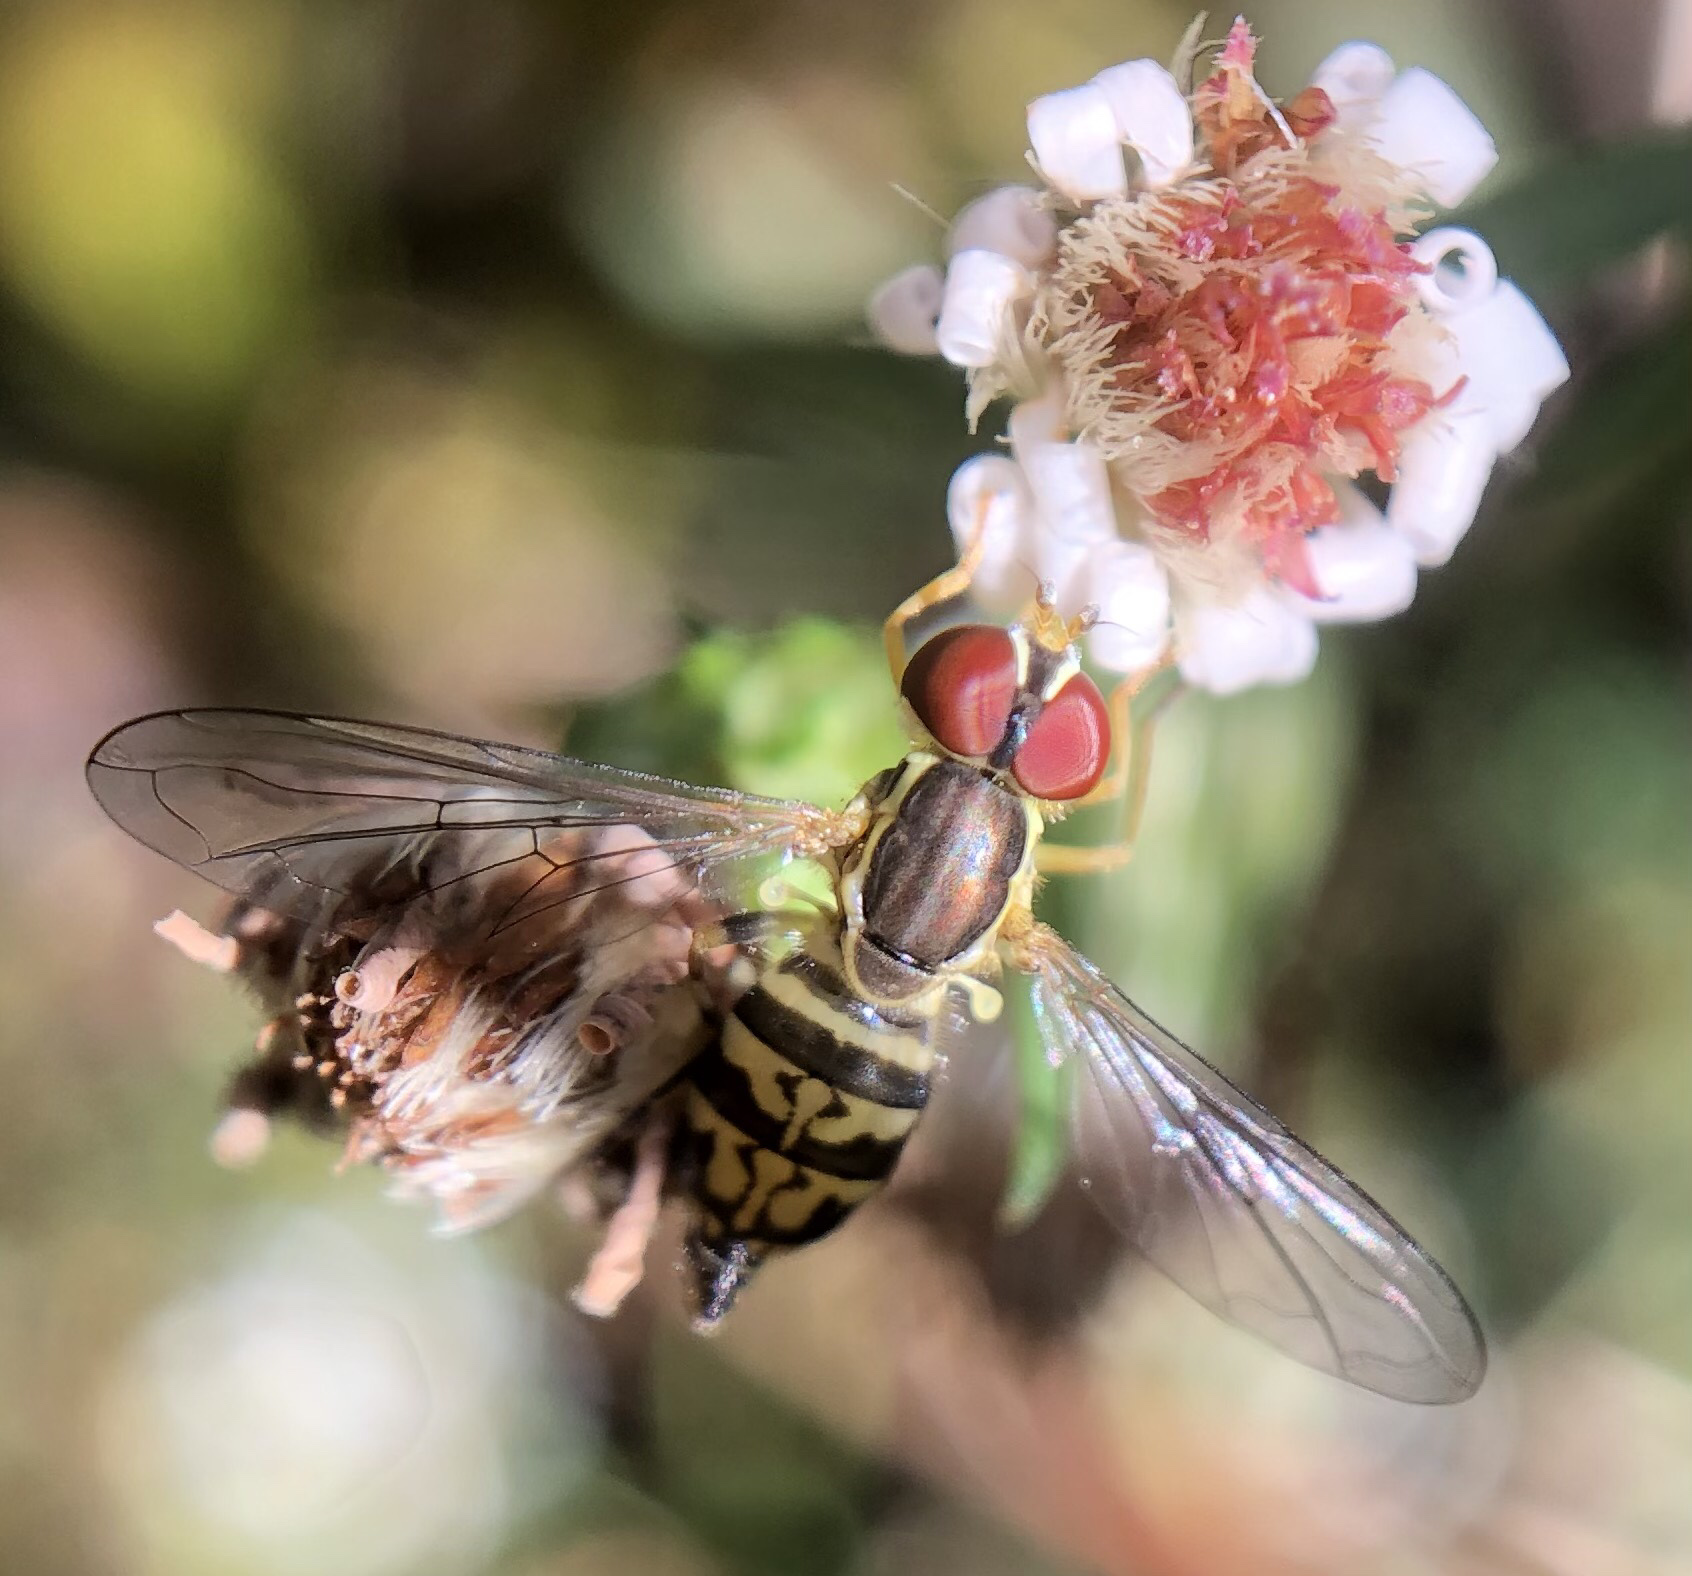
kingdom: Animalia
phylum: Arthropoda
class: Insecta
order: Diptera
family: Syrphidae
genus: Toxomerus
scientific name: Toxomerus geminatus
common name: Eastern calligrapher
